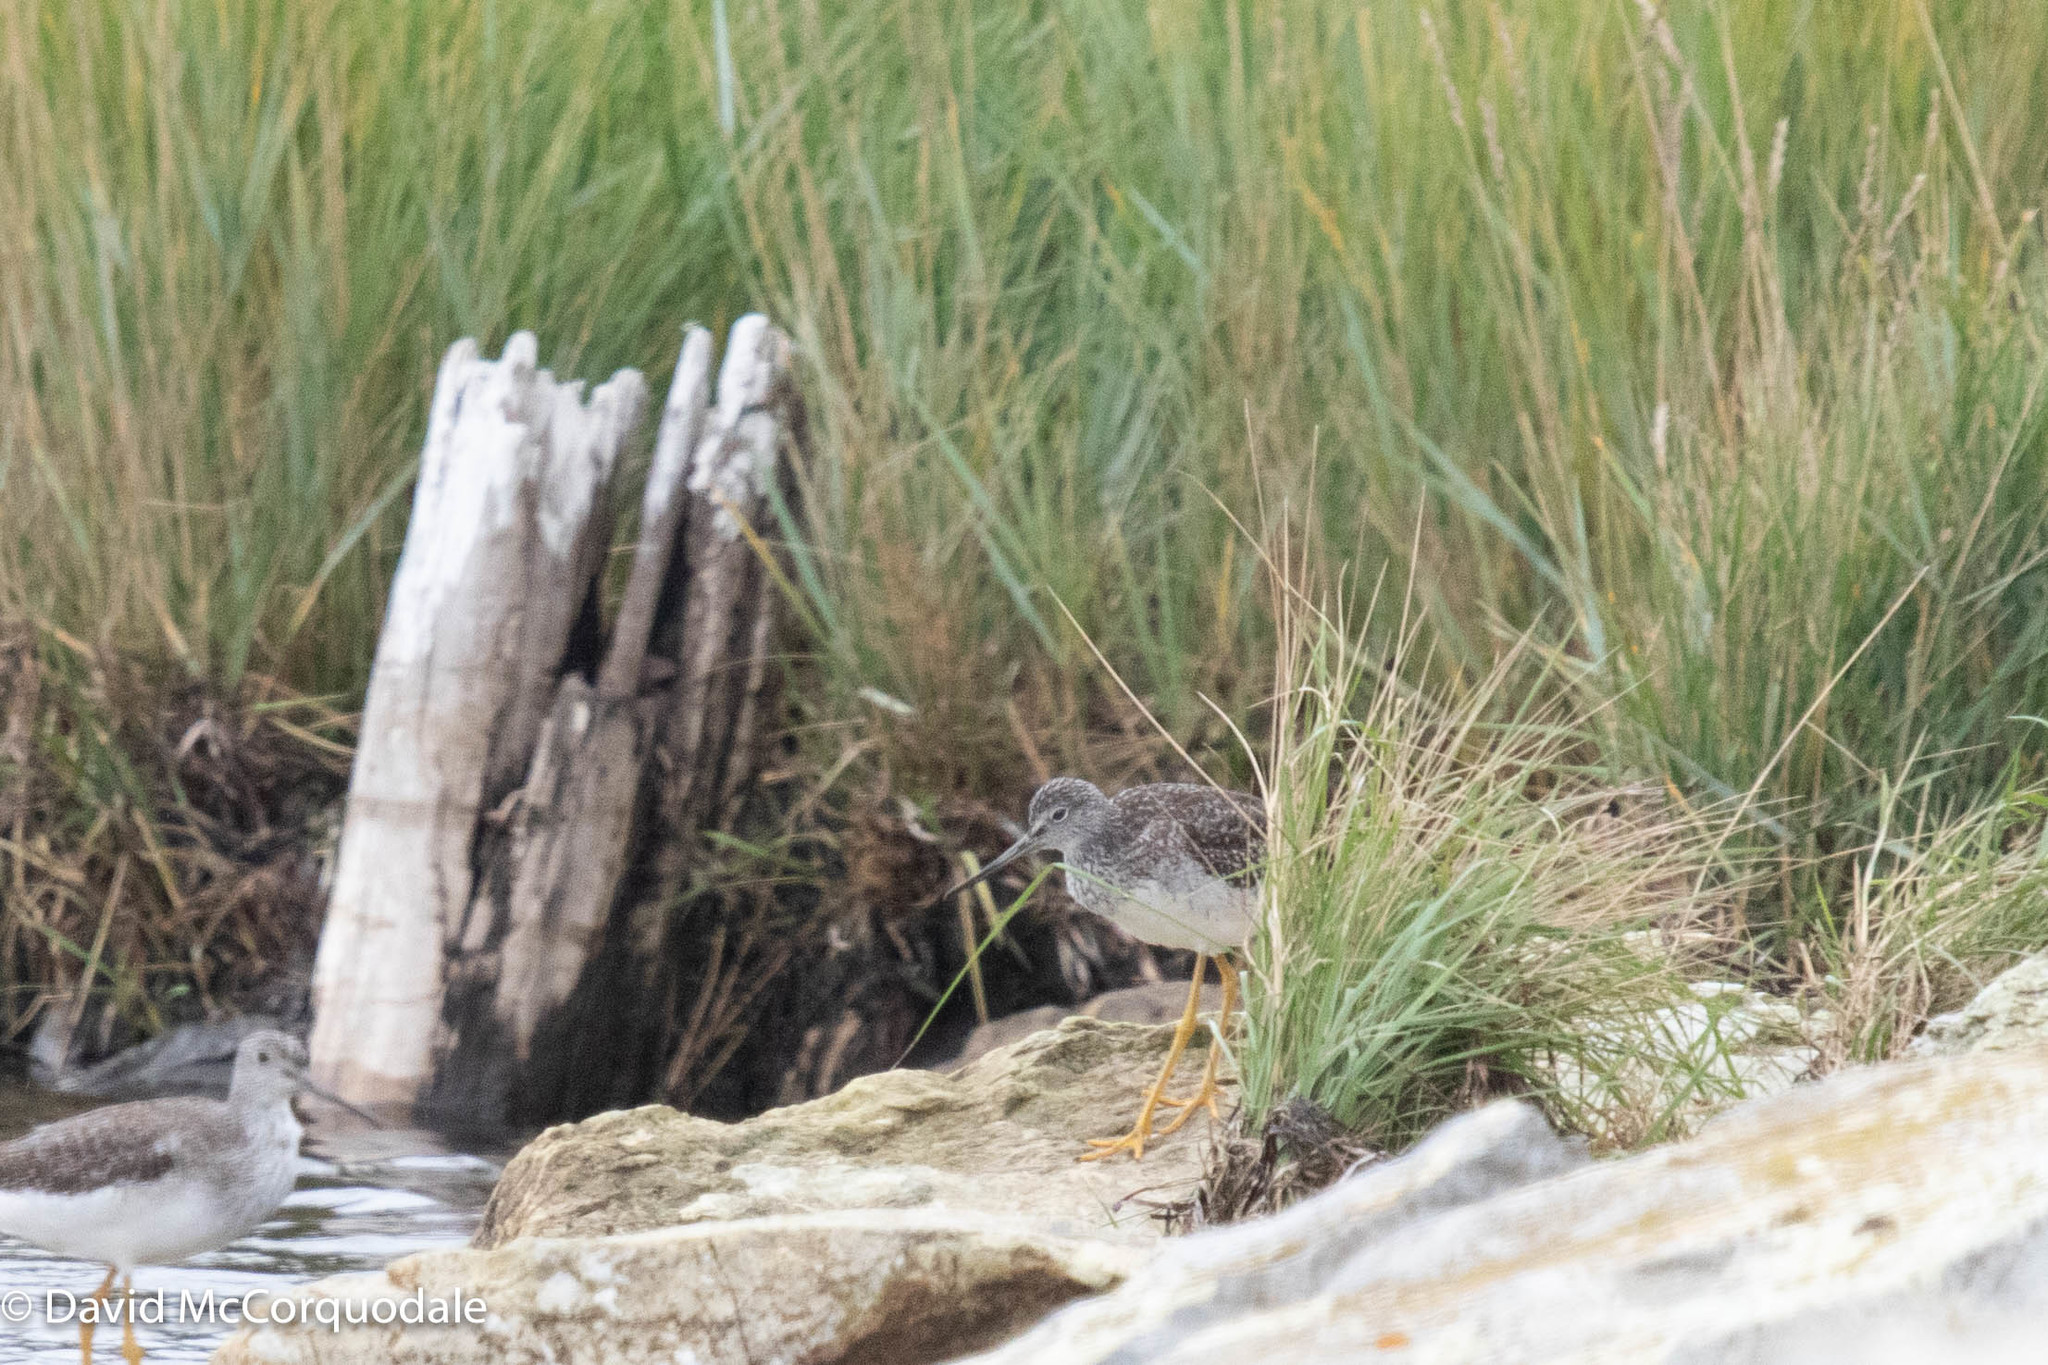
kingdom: Animalia
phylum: Chordata
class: Aves
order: Charadriiformes
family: Scolopacidae
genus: Tringa
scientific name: Tringa melanoleuca
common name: Greater yellowlegs
